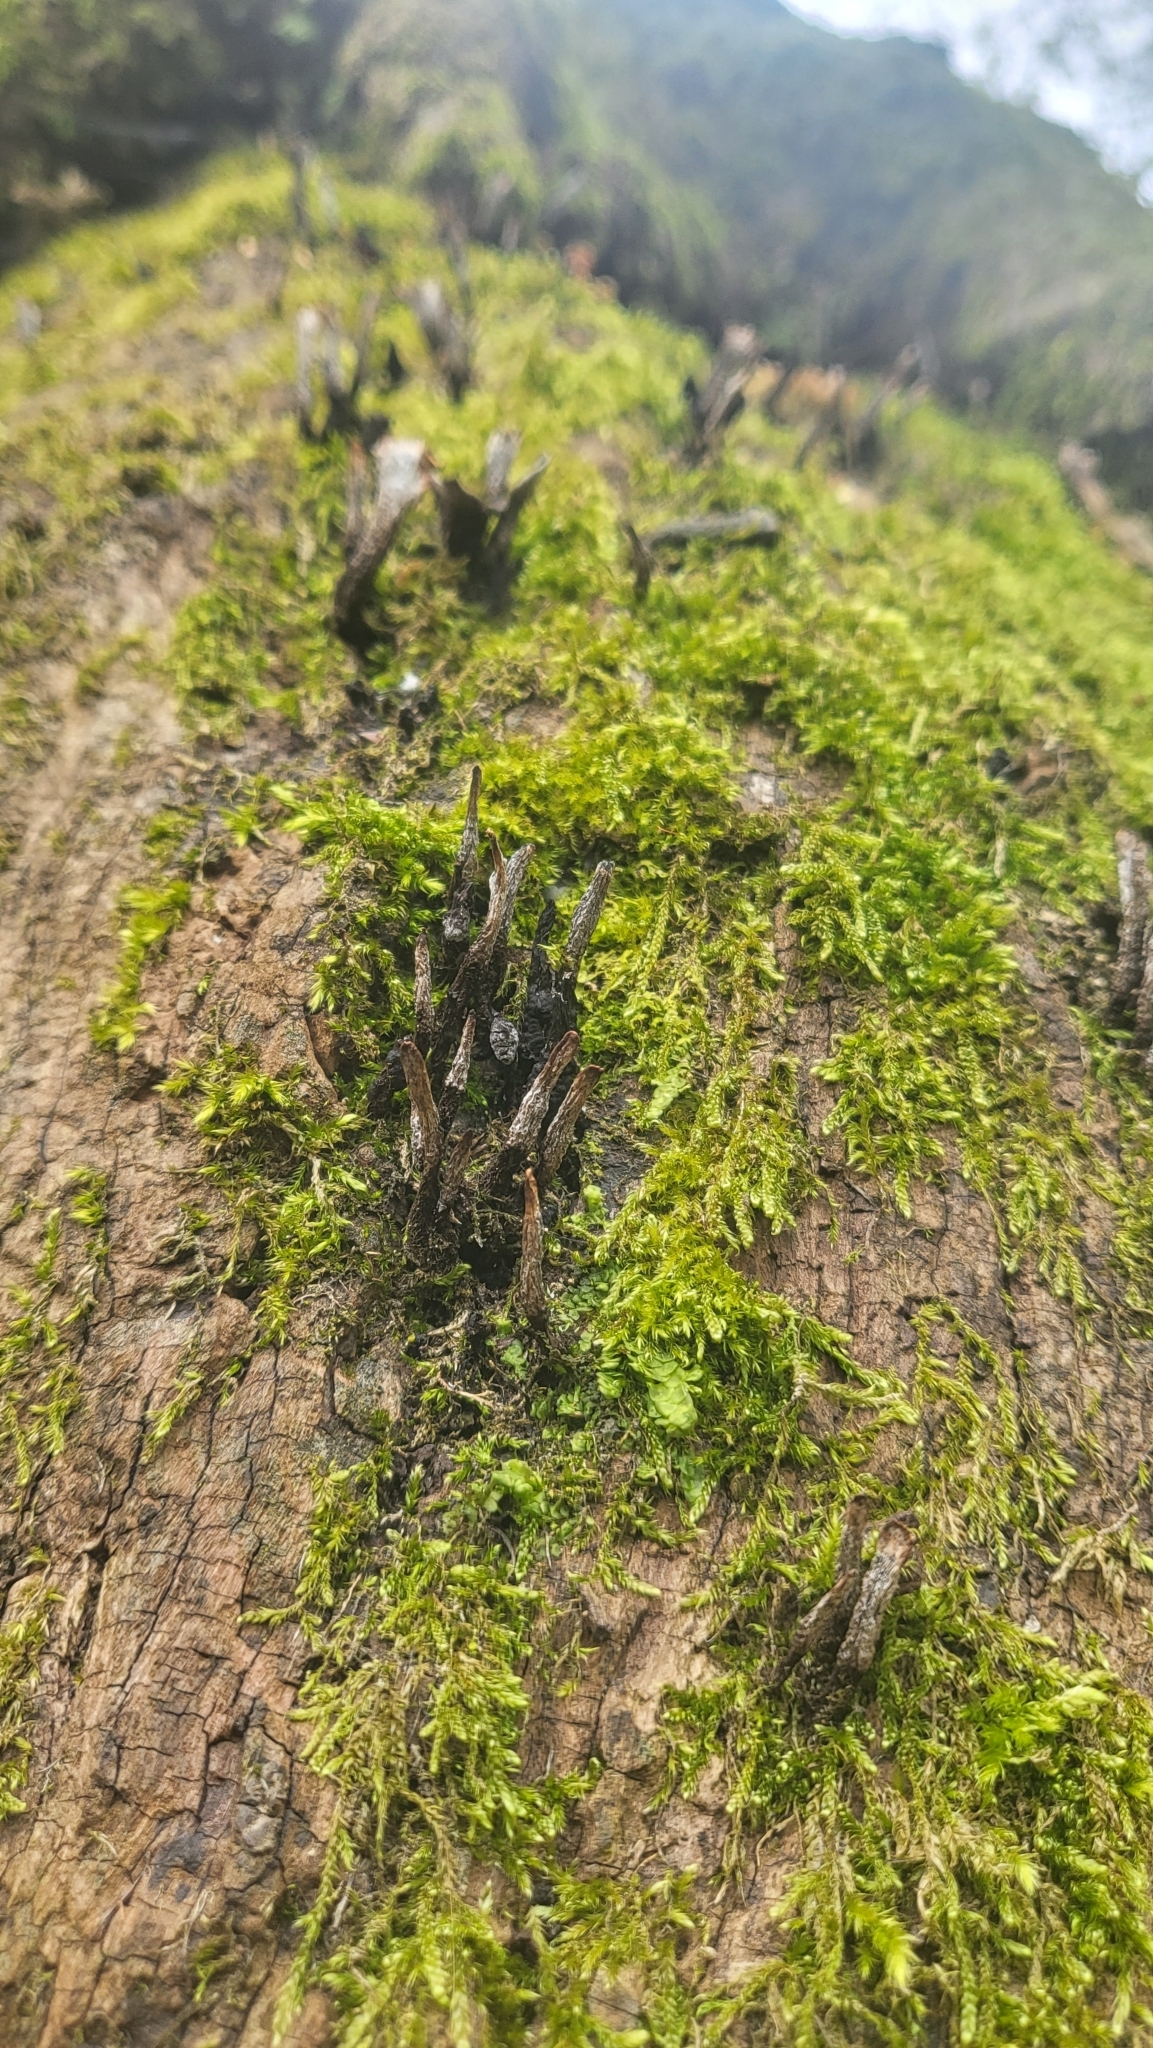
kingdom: Fungi
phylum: Ascomycota
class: Sordariomycetes
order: Xylariales
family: Xylariaceae
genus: Xylaria
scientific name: Xylaria hypoxylon
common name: Candle-snuff fungus
